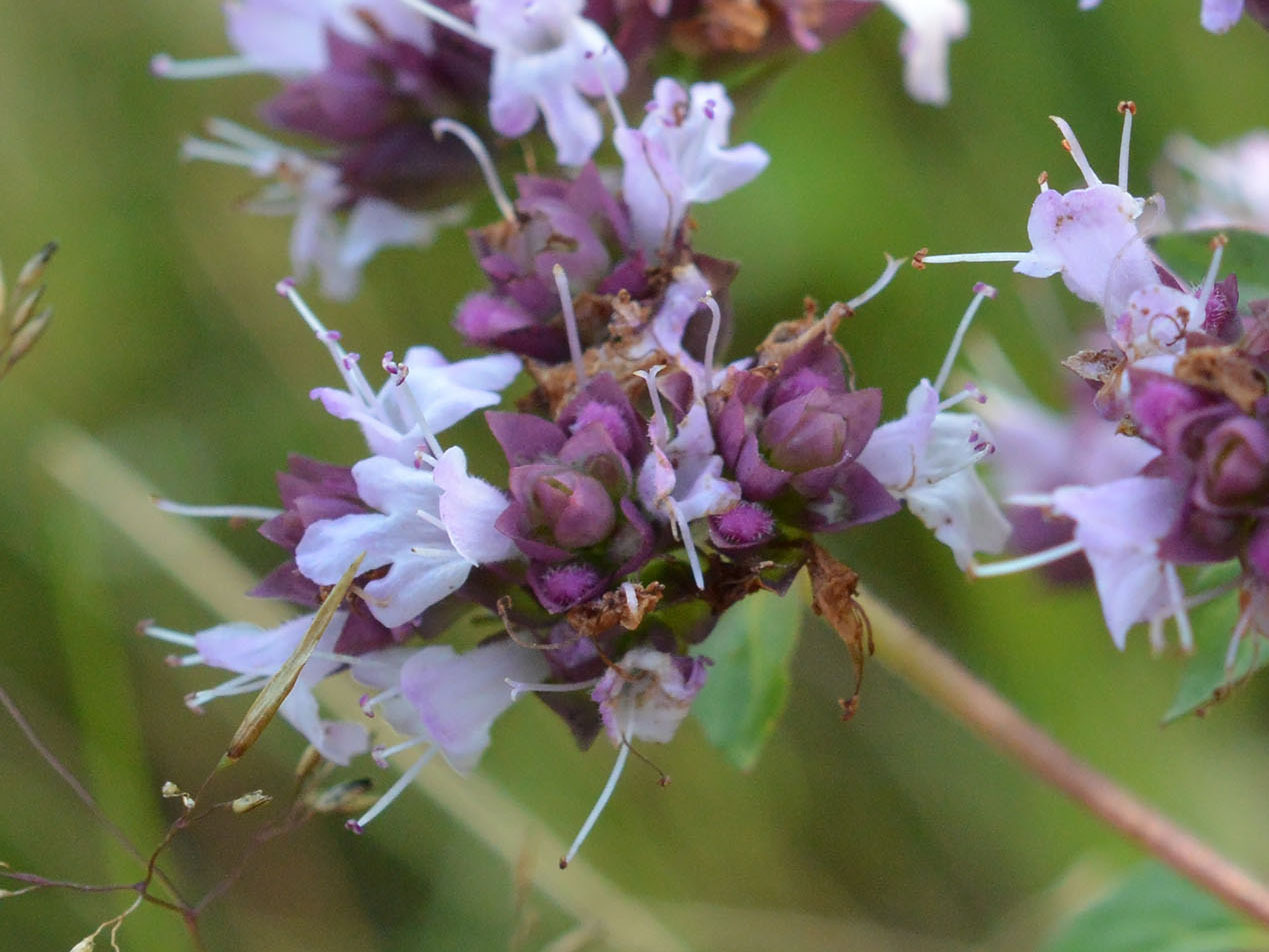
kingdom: Plantae
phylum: Tracheophyta
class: Magnoliopsida
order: Lamiales
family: Lamiaceae
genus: Origanum
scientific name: Origanum vulgare
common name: Wild marjoram
